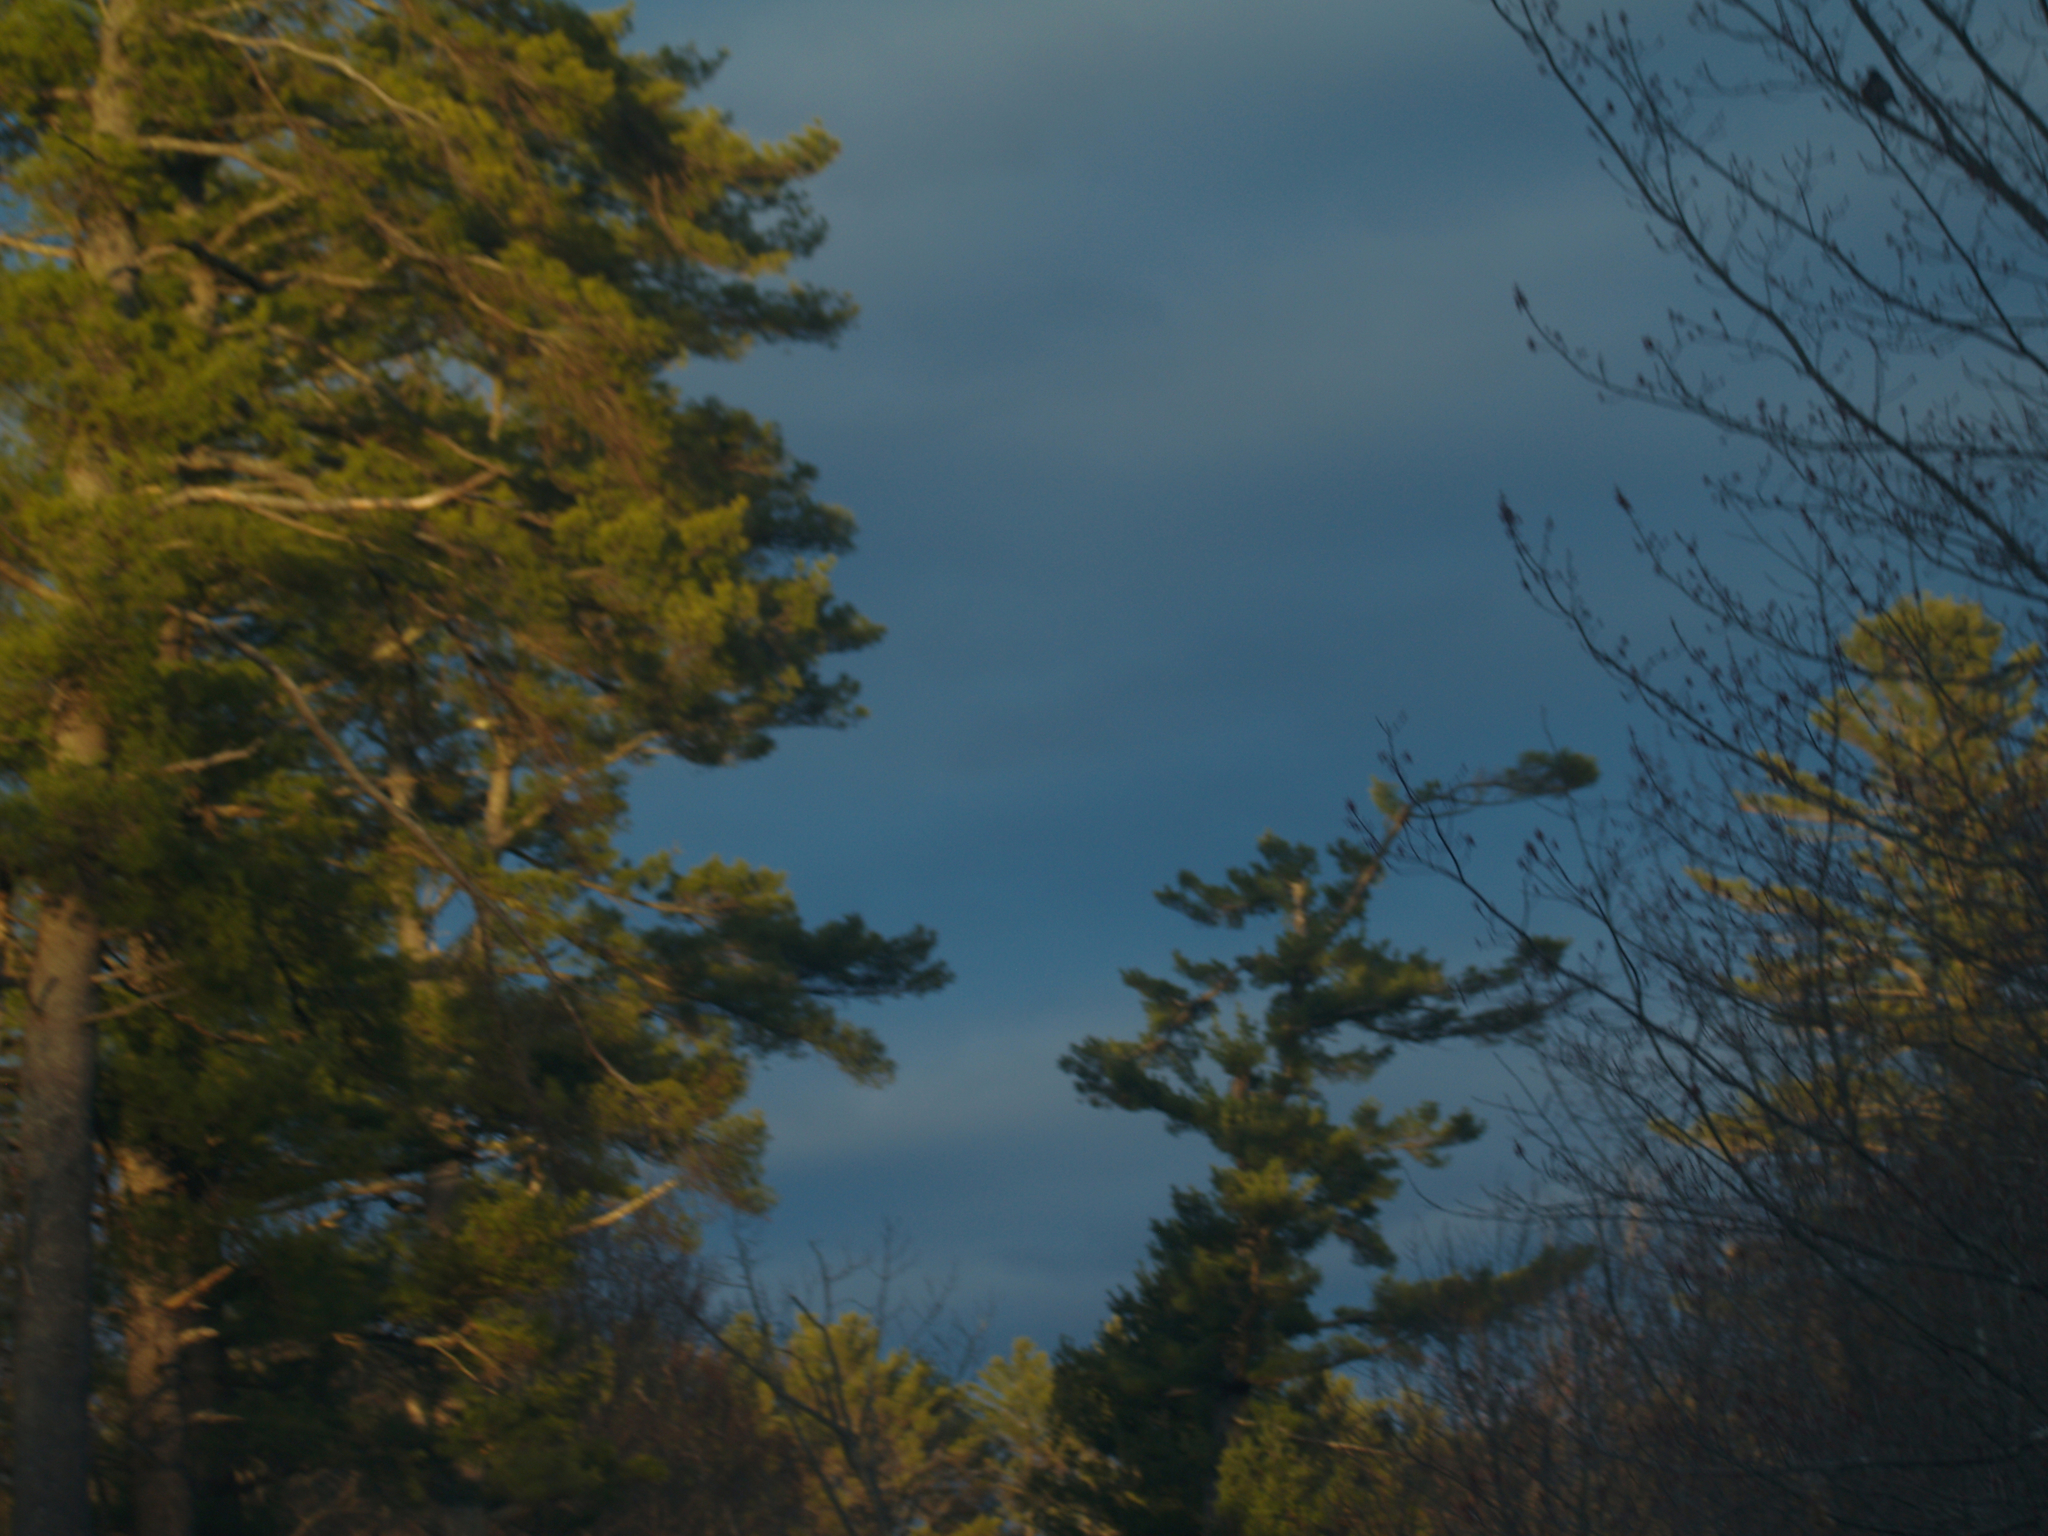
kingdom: Plantae
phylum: Tracheophyta
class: Pinopsida
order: Pinales
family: Pinaceae
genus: Pinus
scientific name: Pinus strobus
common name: Weymouth pine
